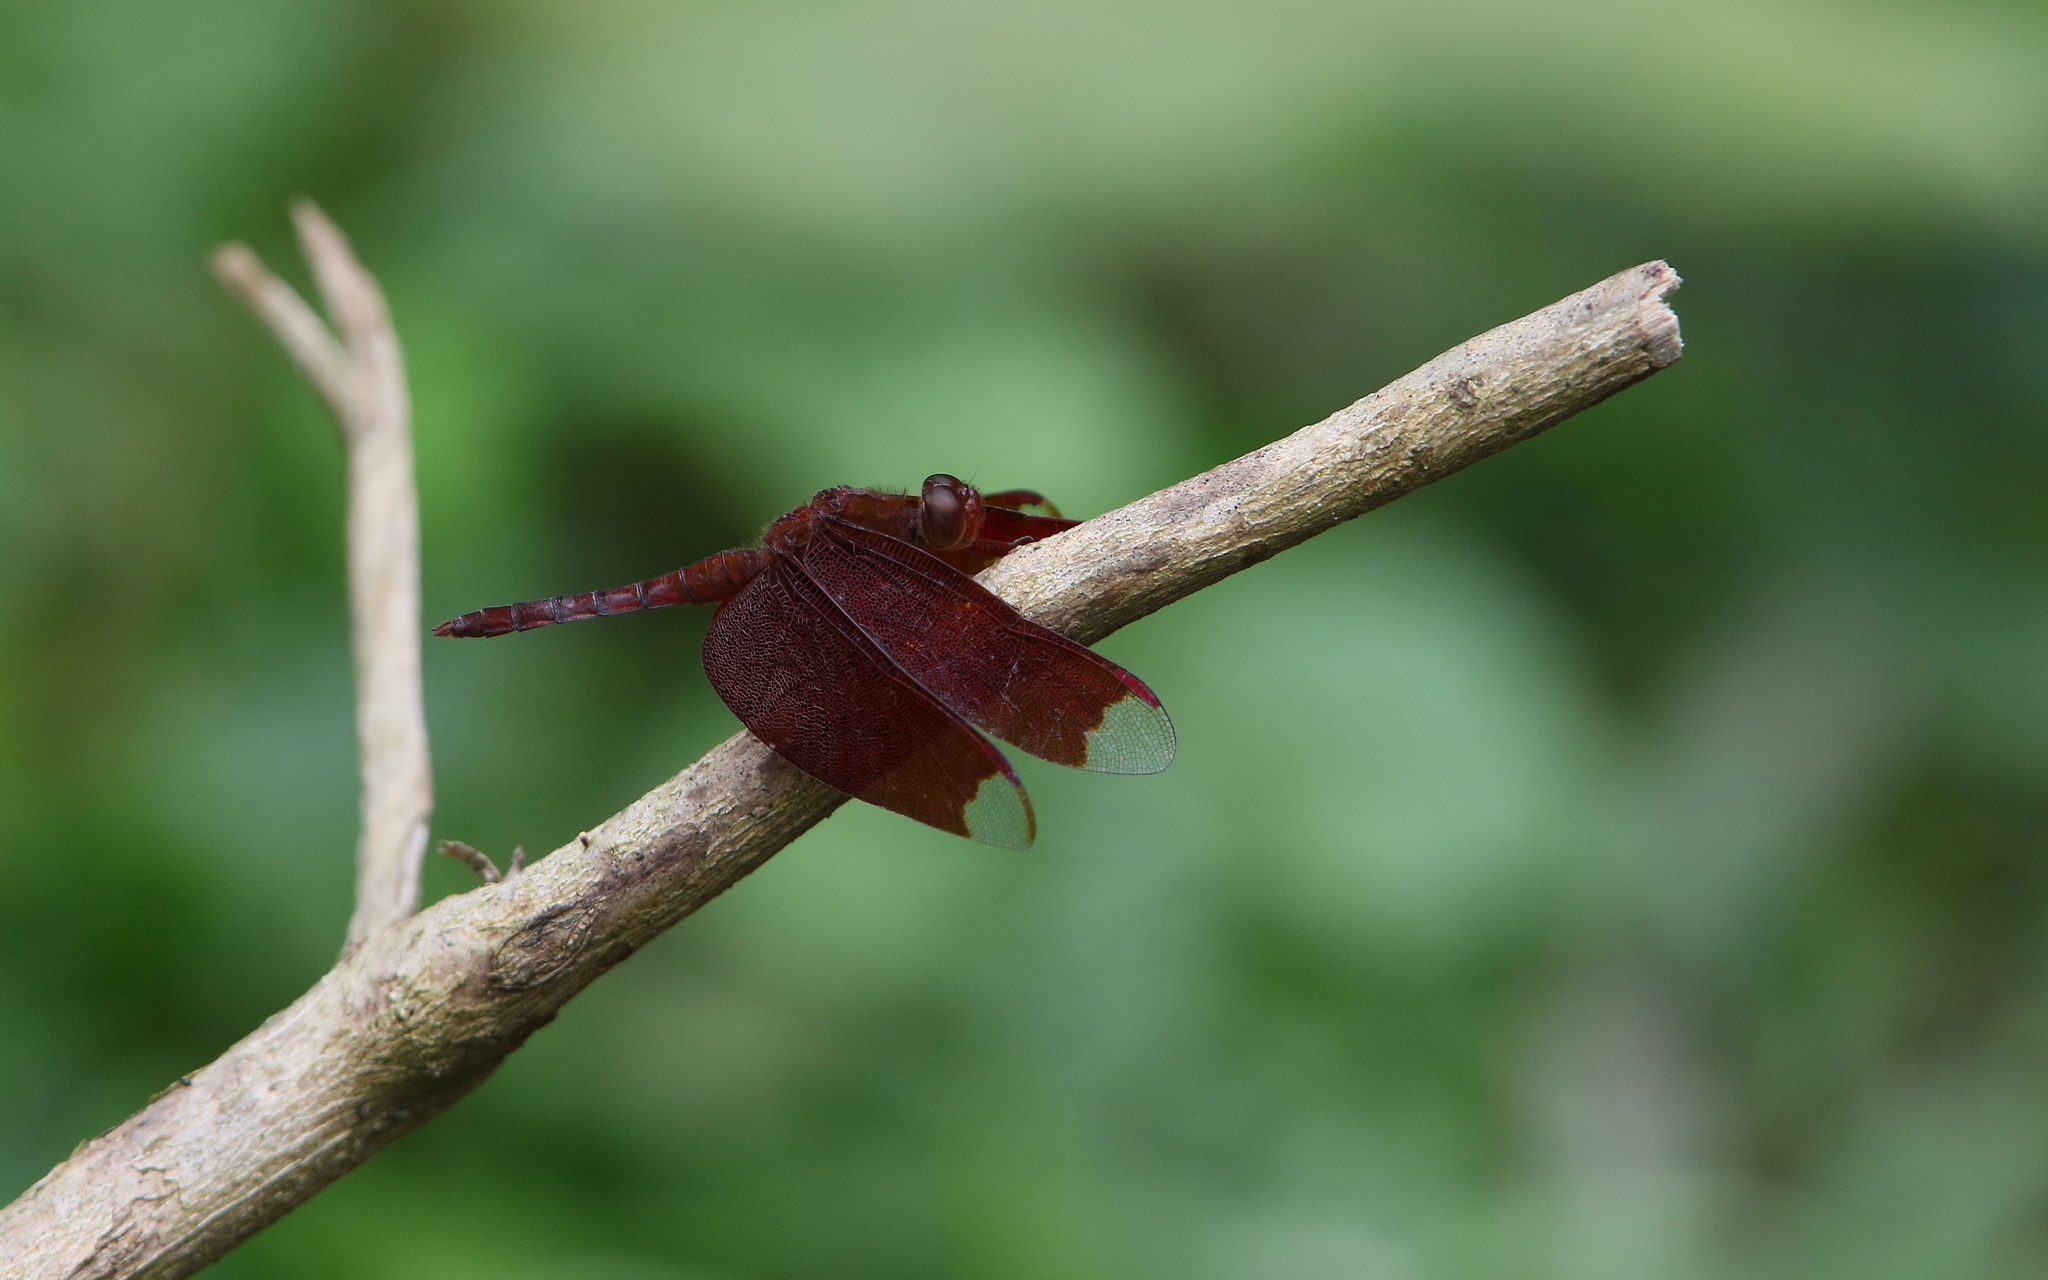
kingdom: Animalia
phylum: Arthropoda
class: Insecta
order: Odonata
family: Libellulidae
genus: Neurothemis
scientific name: Neurothemis fulvia
